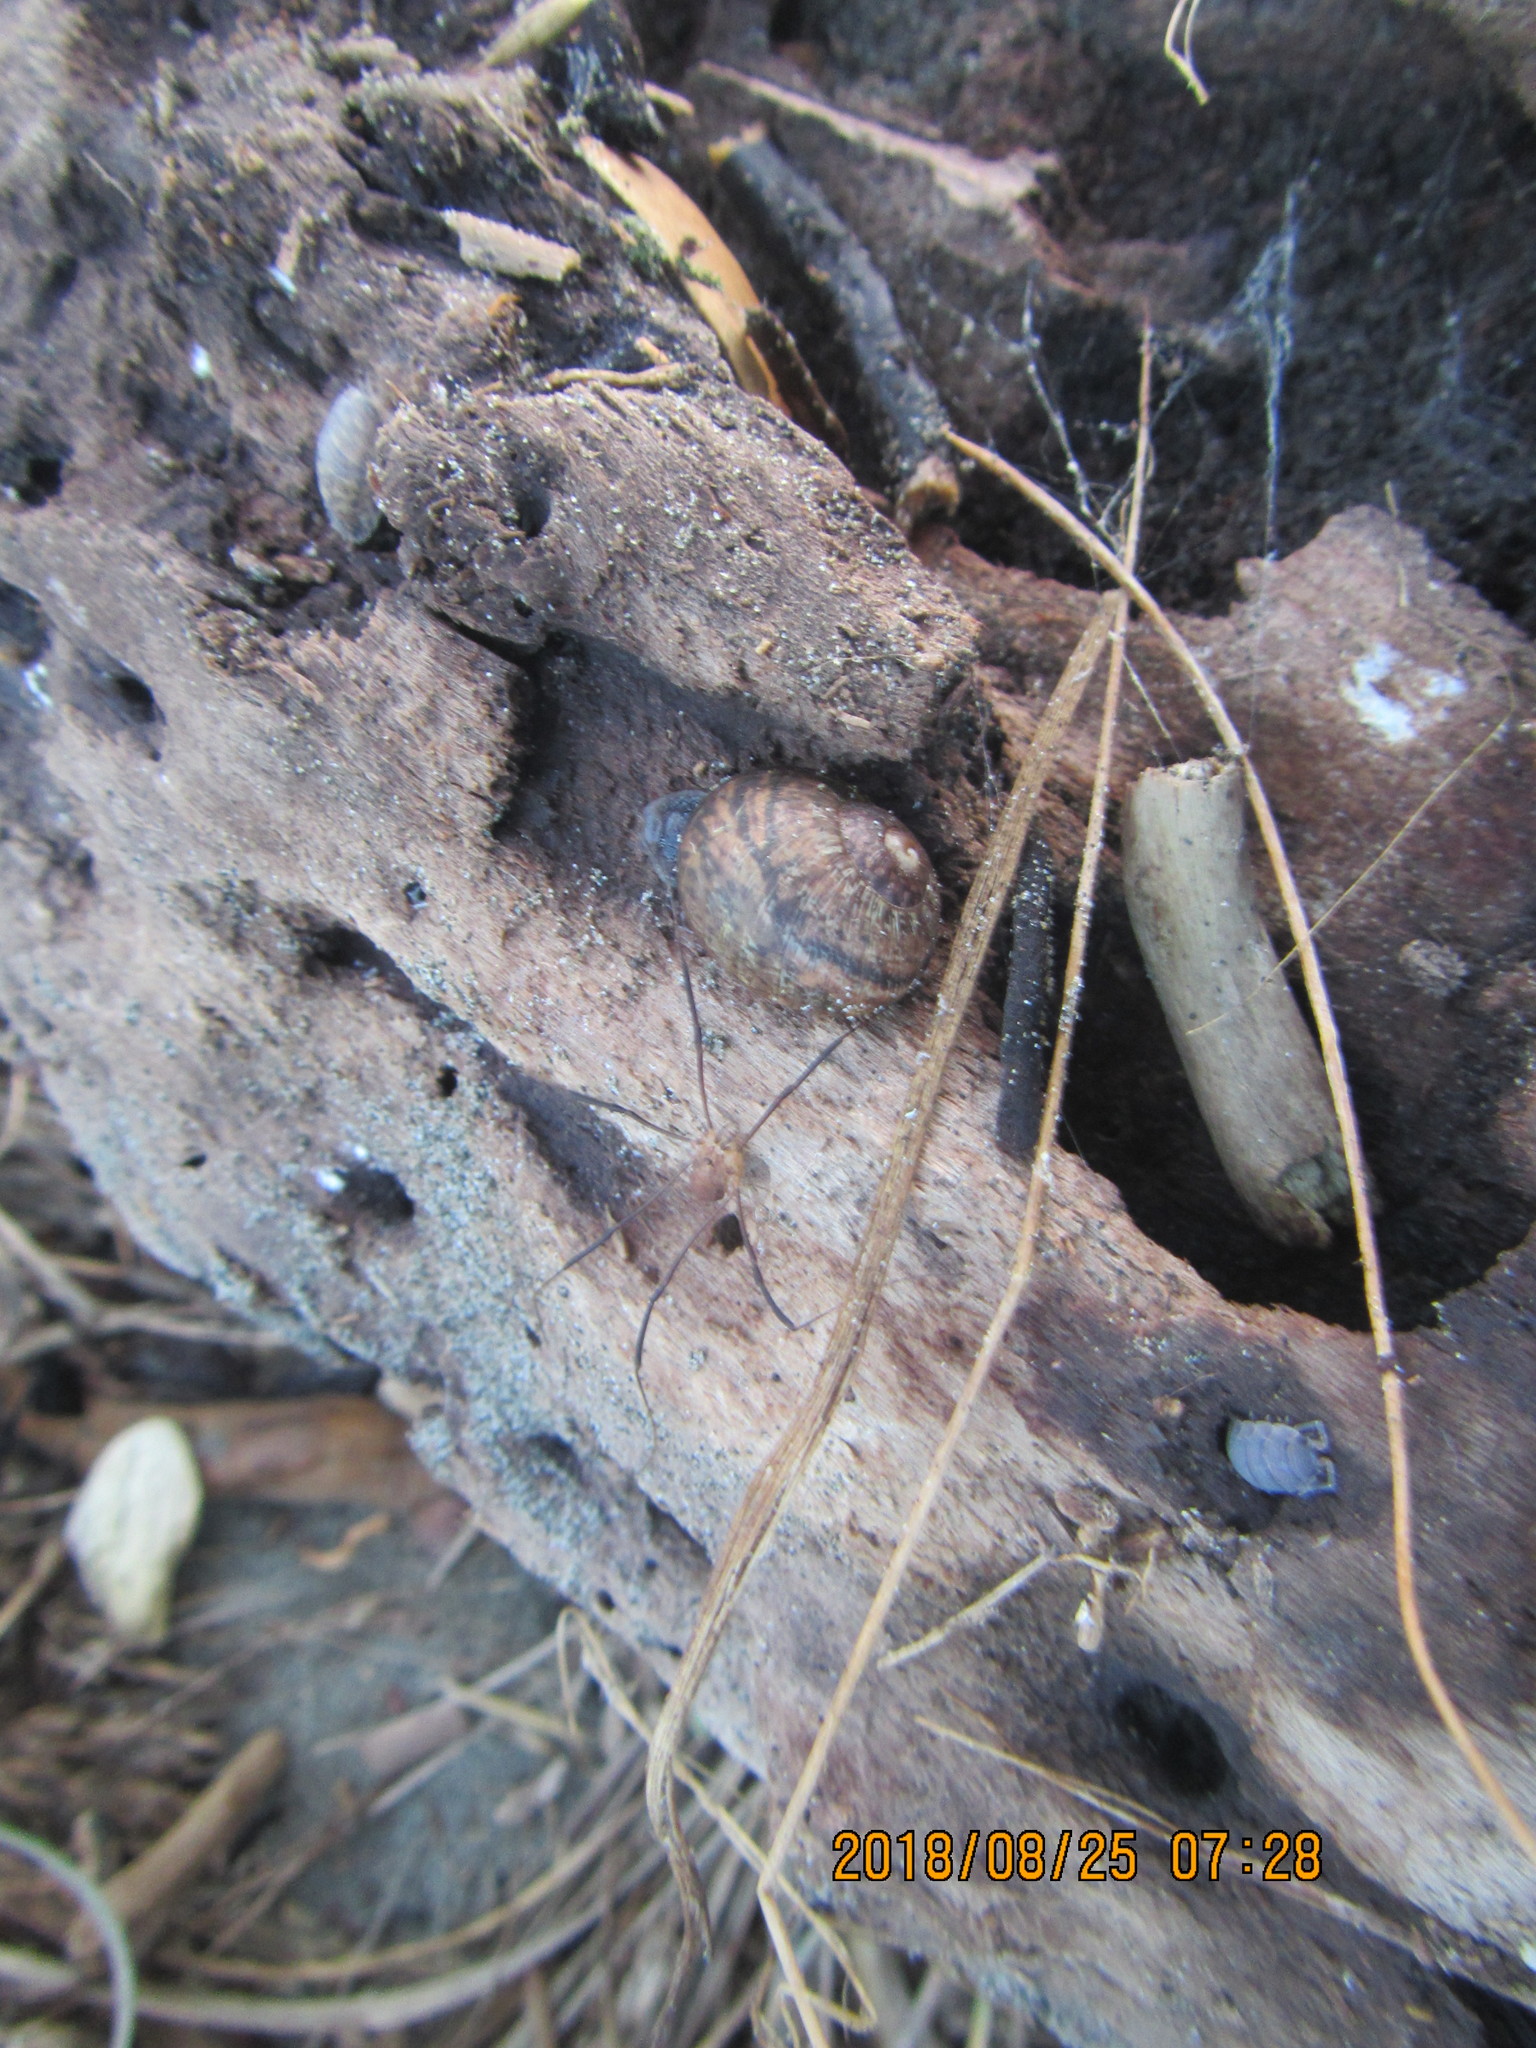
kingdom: Animalia
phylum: Arthropoda
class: Arachnida
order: Opiliones
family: Phalangiidae
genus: Phalangium
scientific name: Phalangium opilio
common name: Daddy longleg
